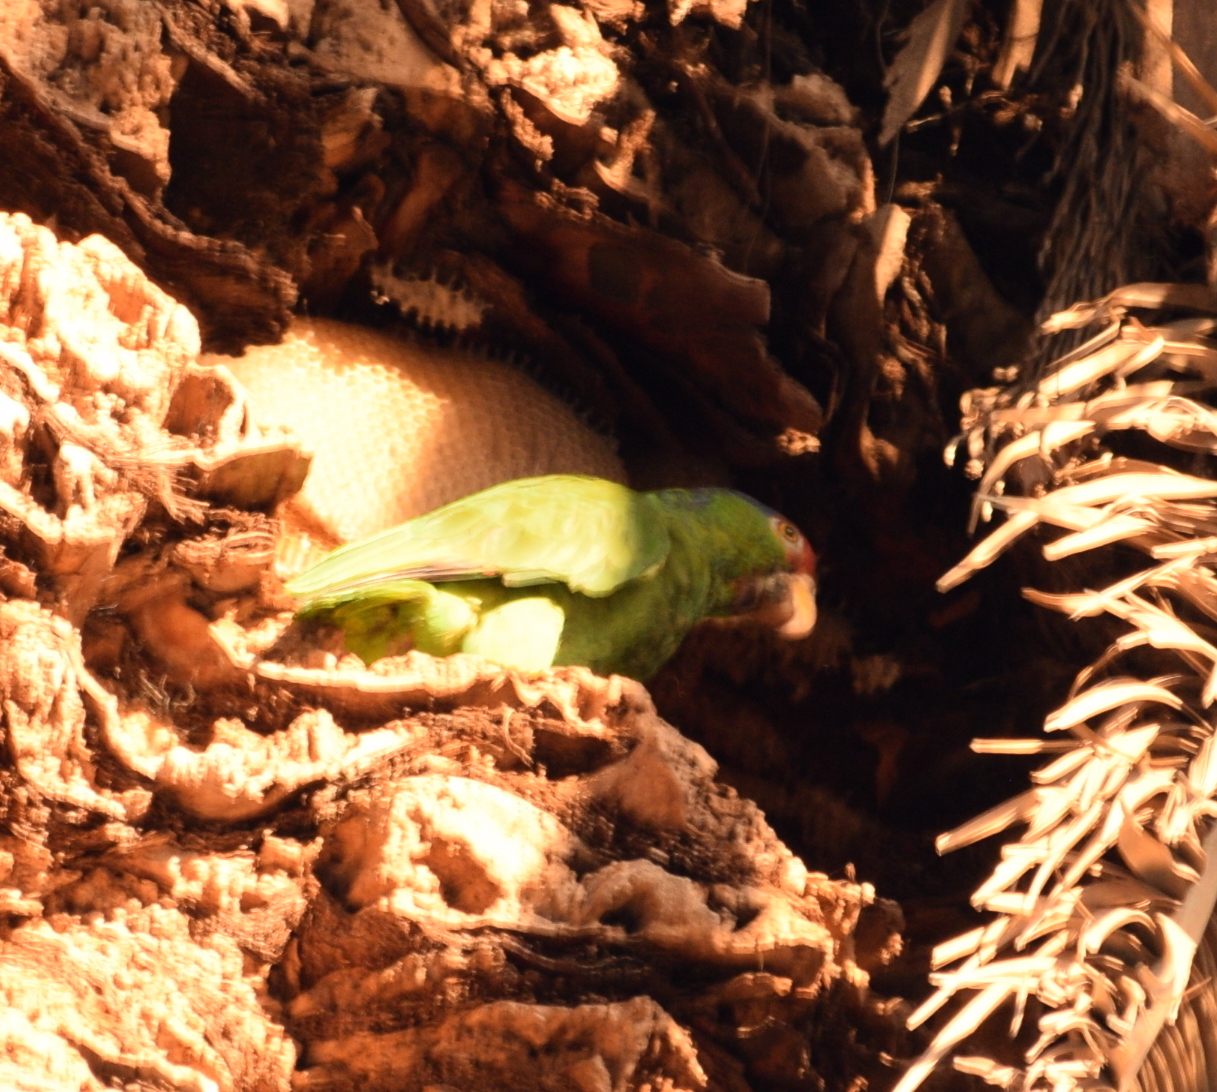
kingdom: Animalia
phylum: Chordata
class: Aves
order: Psittaciformes
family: Psittacidae
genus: Amazona
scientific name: Amazona viridigenalis
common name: Red-crowned amazon
